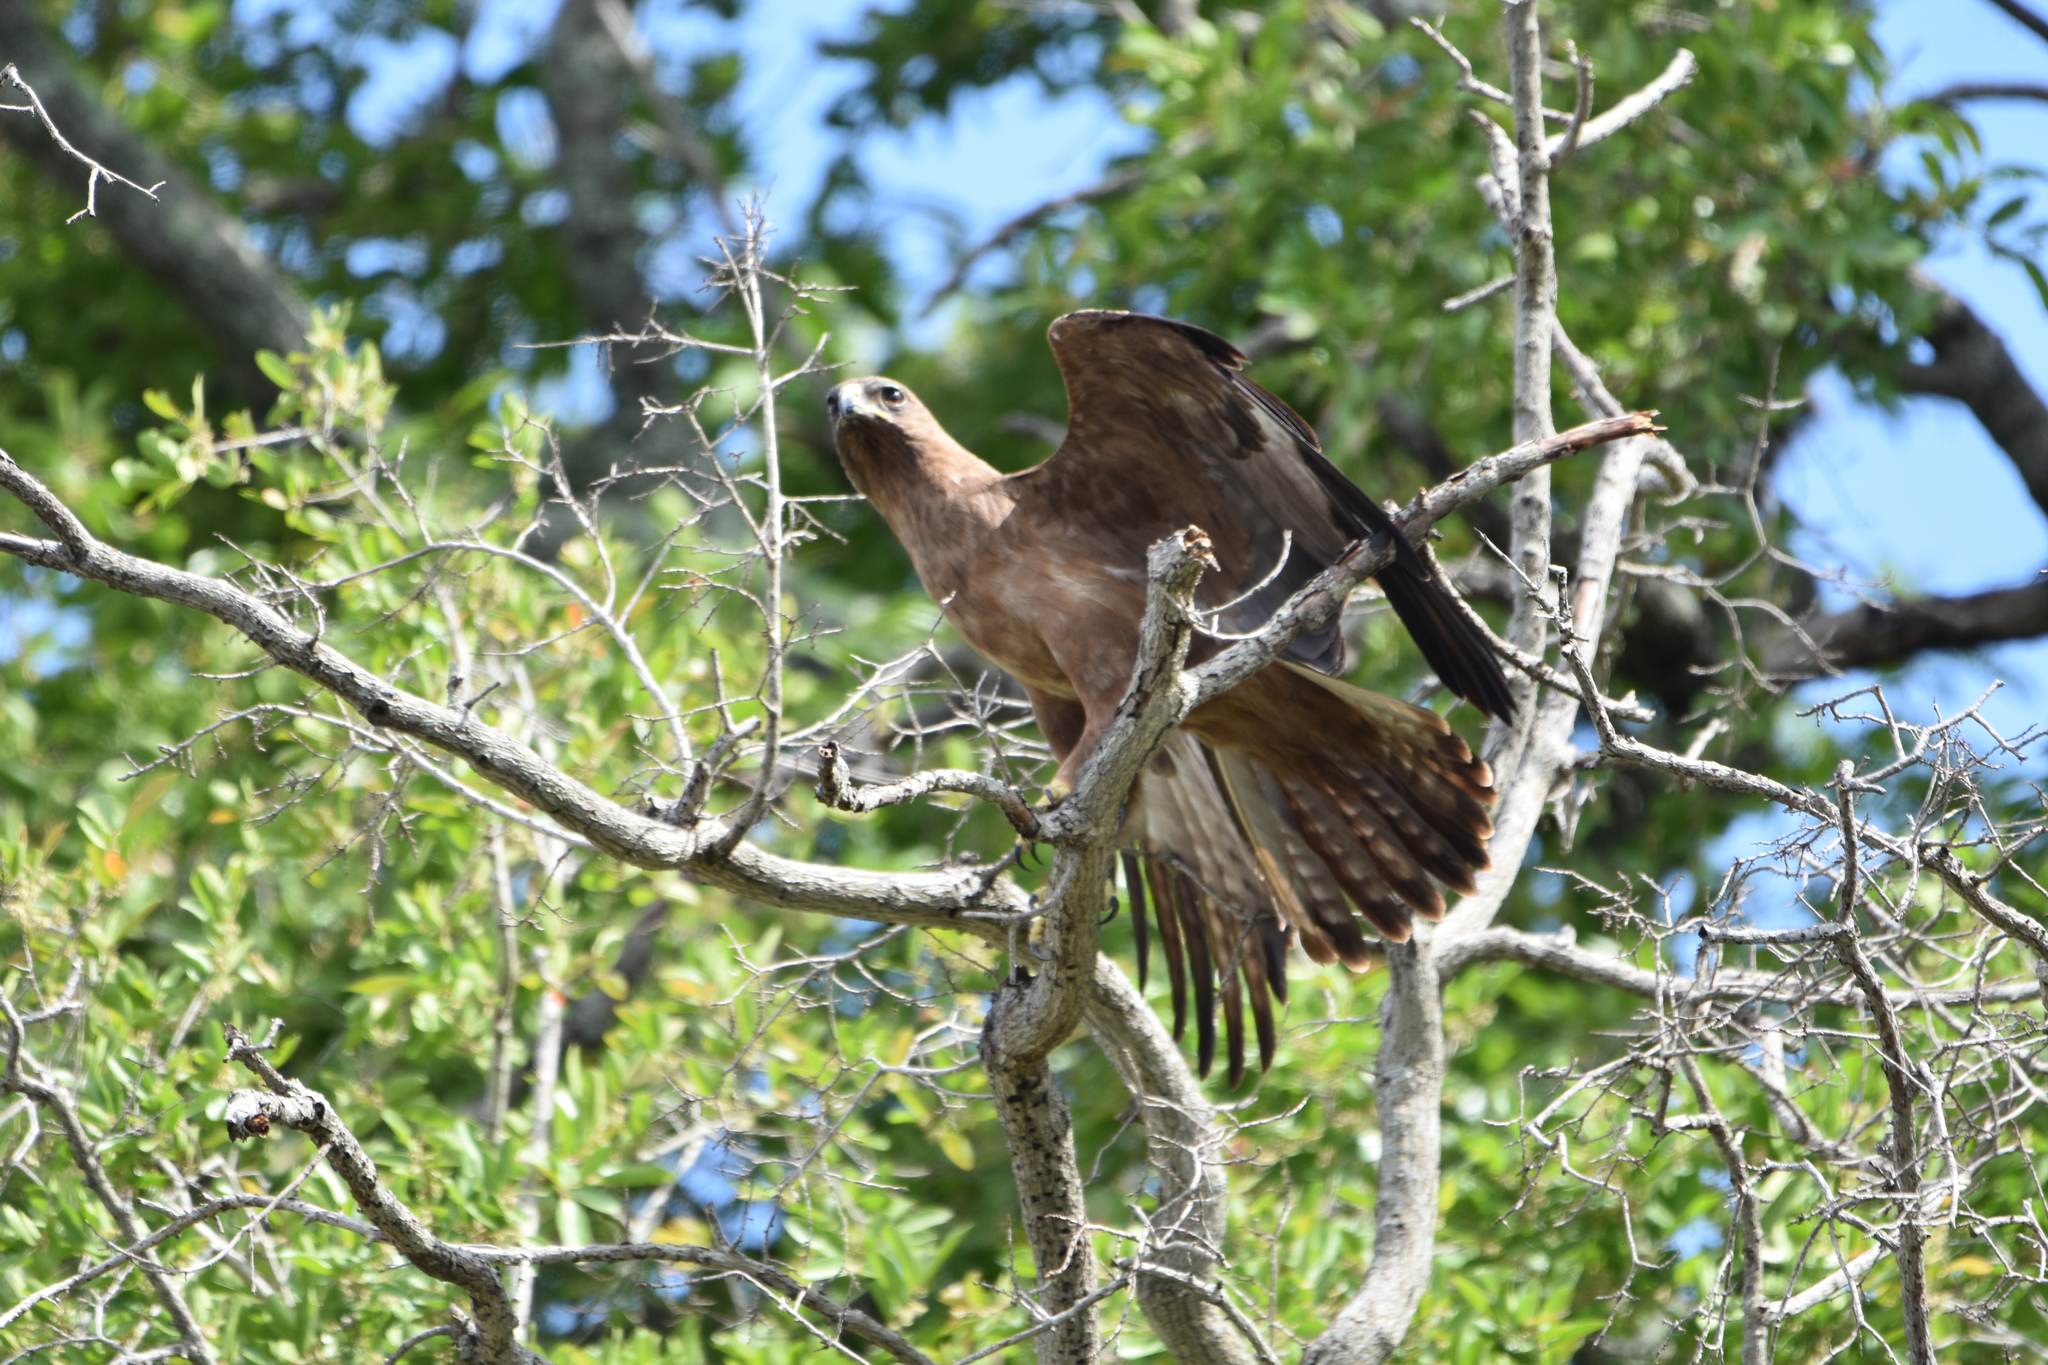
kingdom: Animalia
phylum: Chordata
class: Aves
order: Accipitriformes
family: Accipitridae
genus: Hieraaetus
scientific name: Hieraaetus wahlbergi
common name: Wahlberg's eagle
